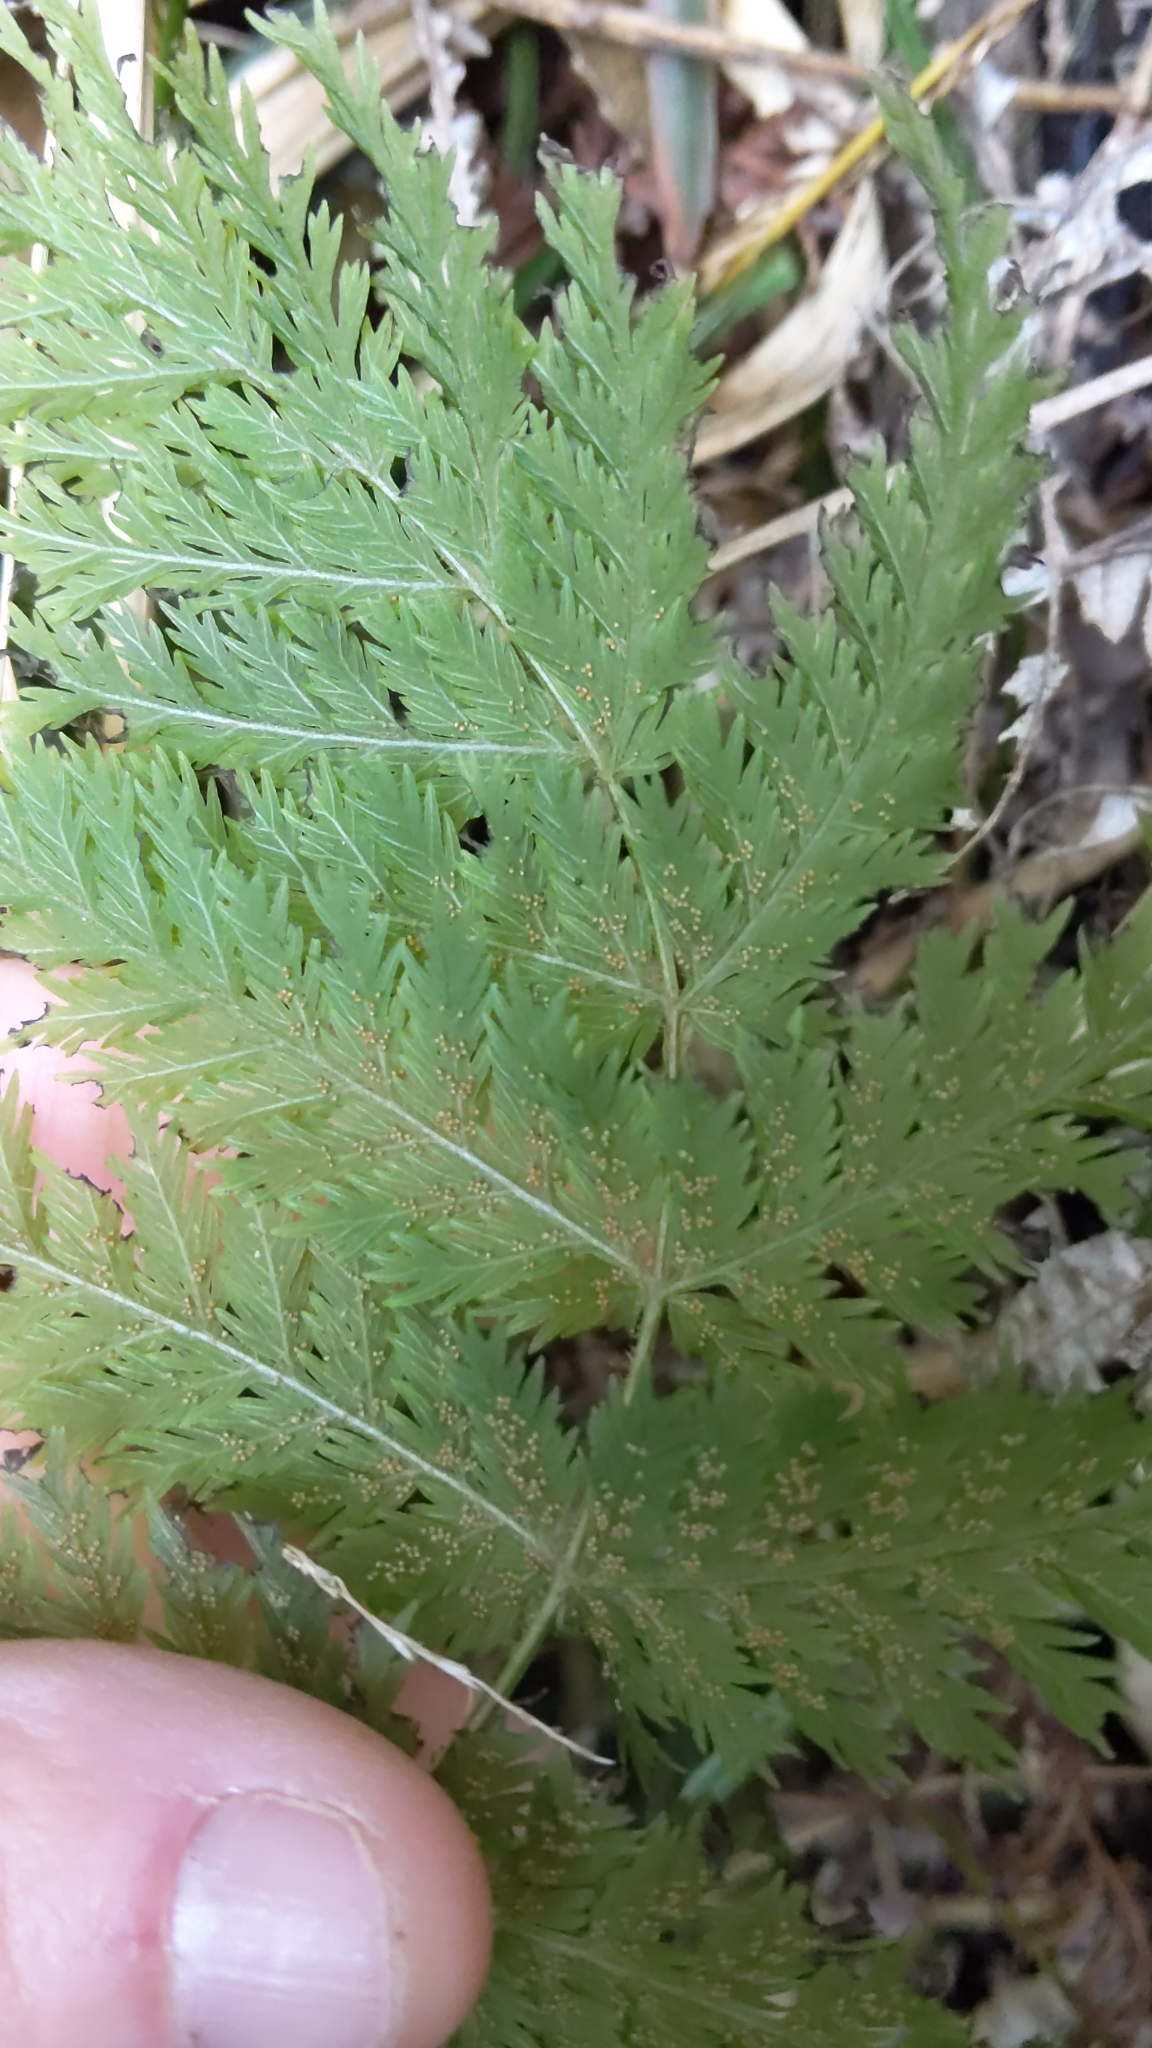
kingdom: Plantae
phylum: Tracheophyta
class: Polypodiopsida
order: Osmundales
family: Osmundaceae
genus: Leptopteris
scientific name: Leptopteris hymenophylloides
